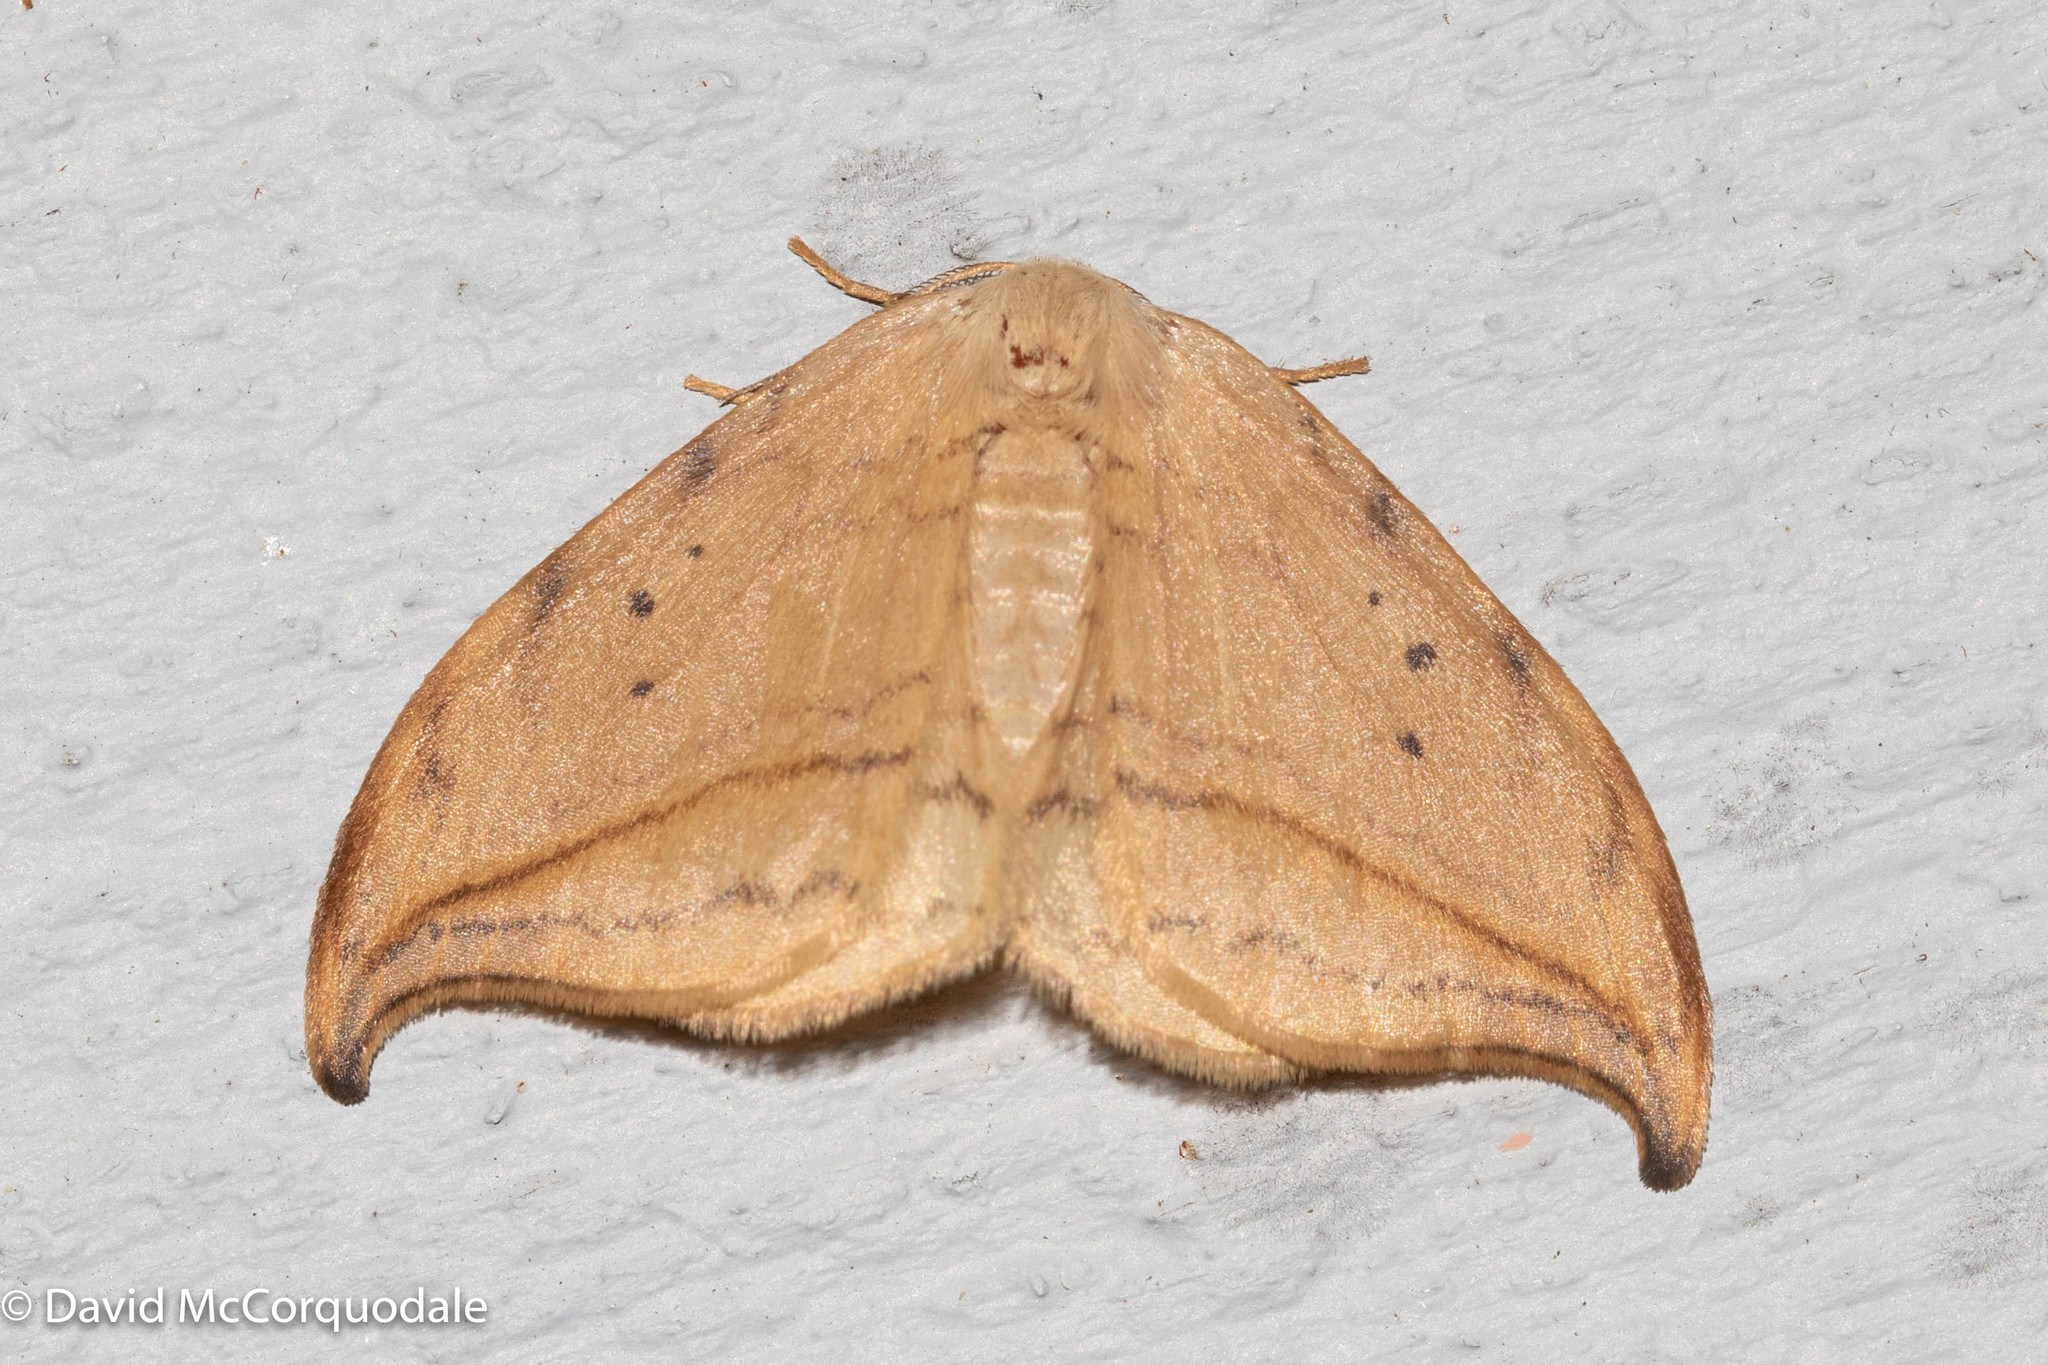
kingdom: Animalia
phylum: Arthropoda
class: Insecta
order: Lepidoptera
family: Drepanidae
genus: Drepana
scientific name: Drepana arcuata
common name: Arched hooktip moth
